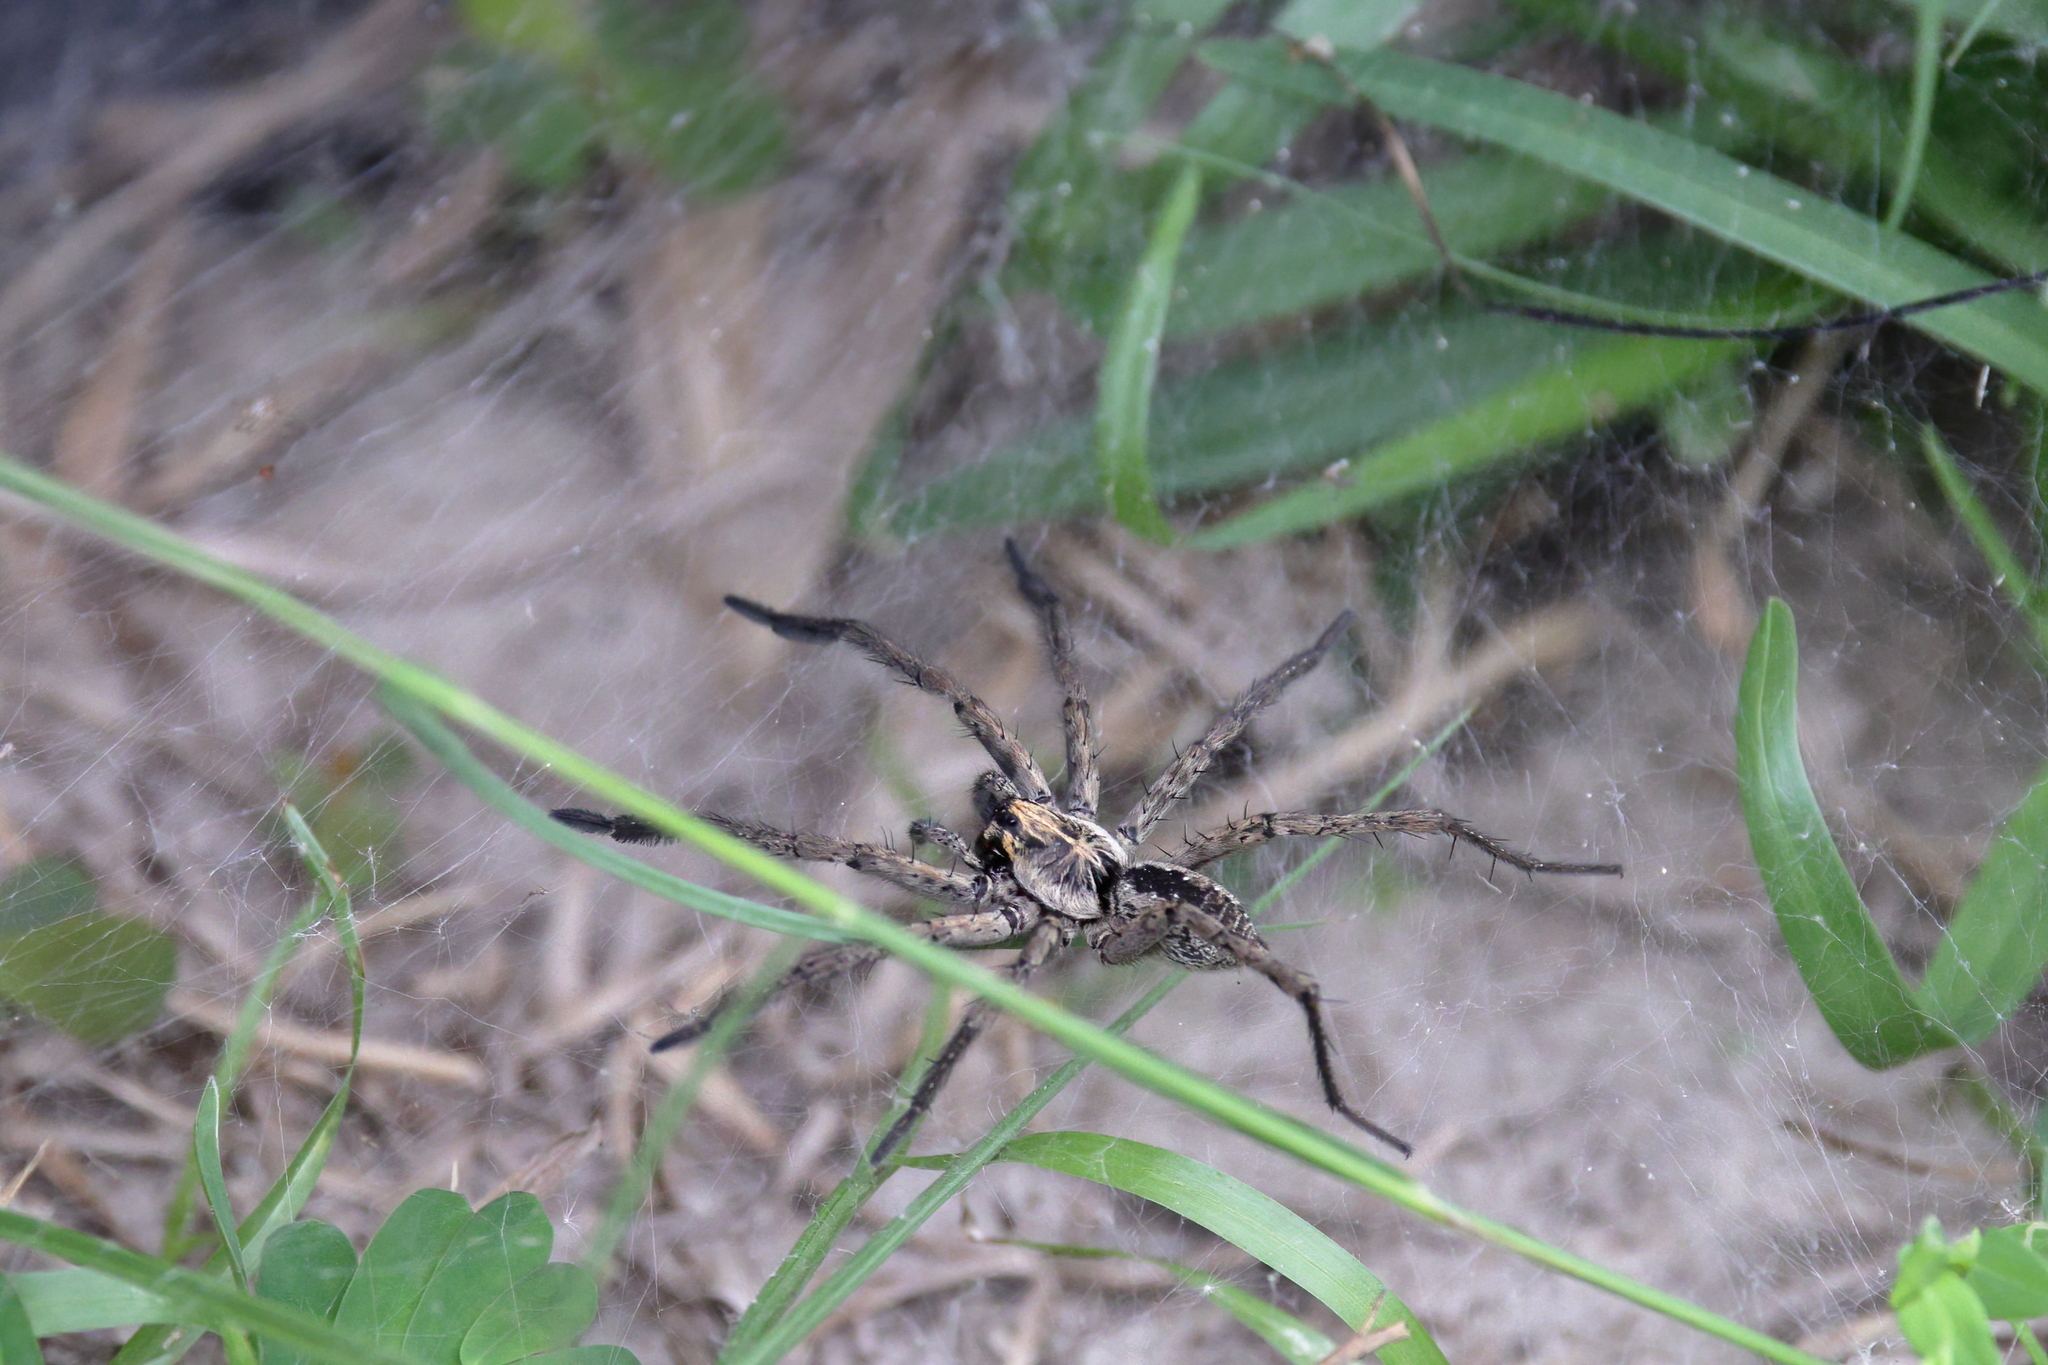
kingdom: Animalia
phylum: Arthropoda
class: Arachnida
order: Araneae
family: Lycosidae
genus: Sosippus
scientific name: Sosippus mimus
